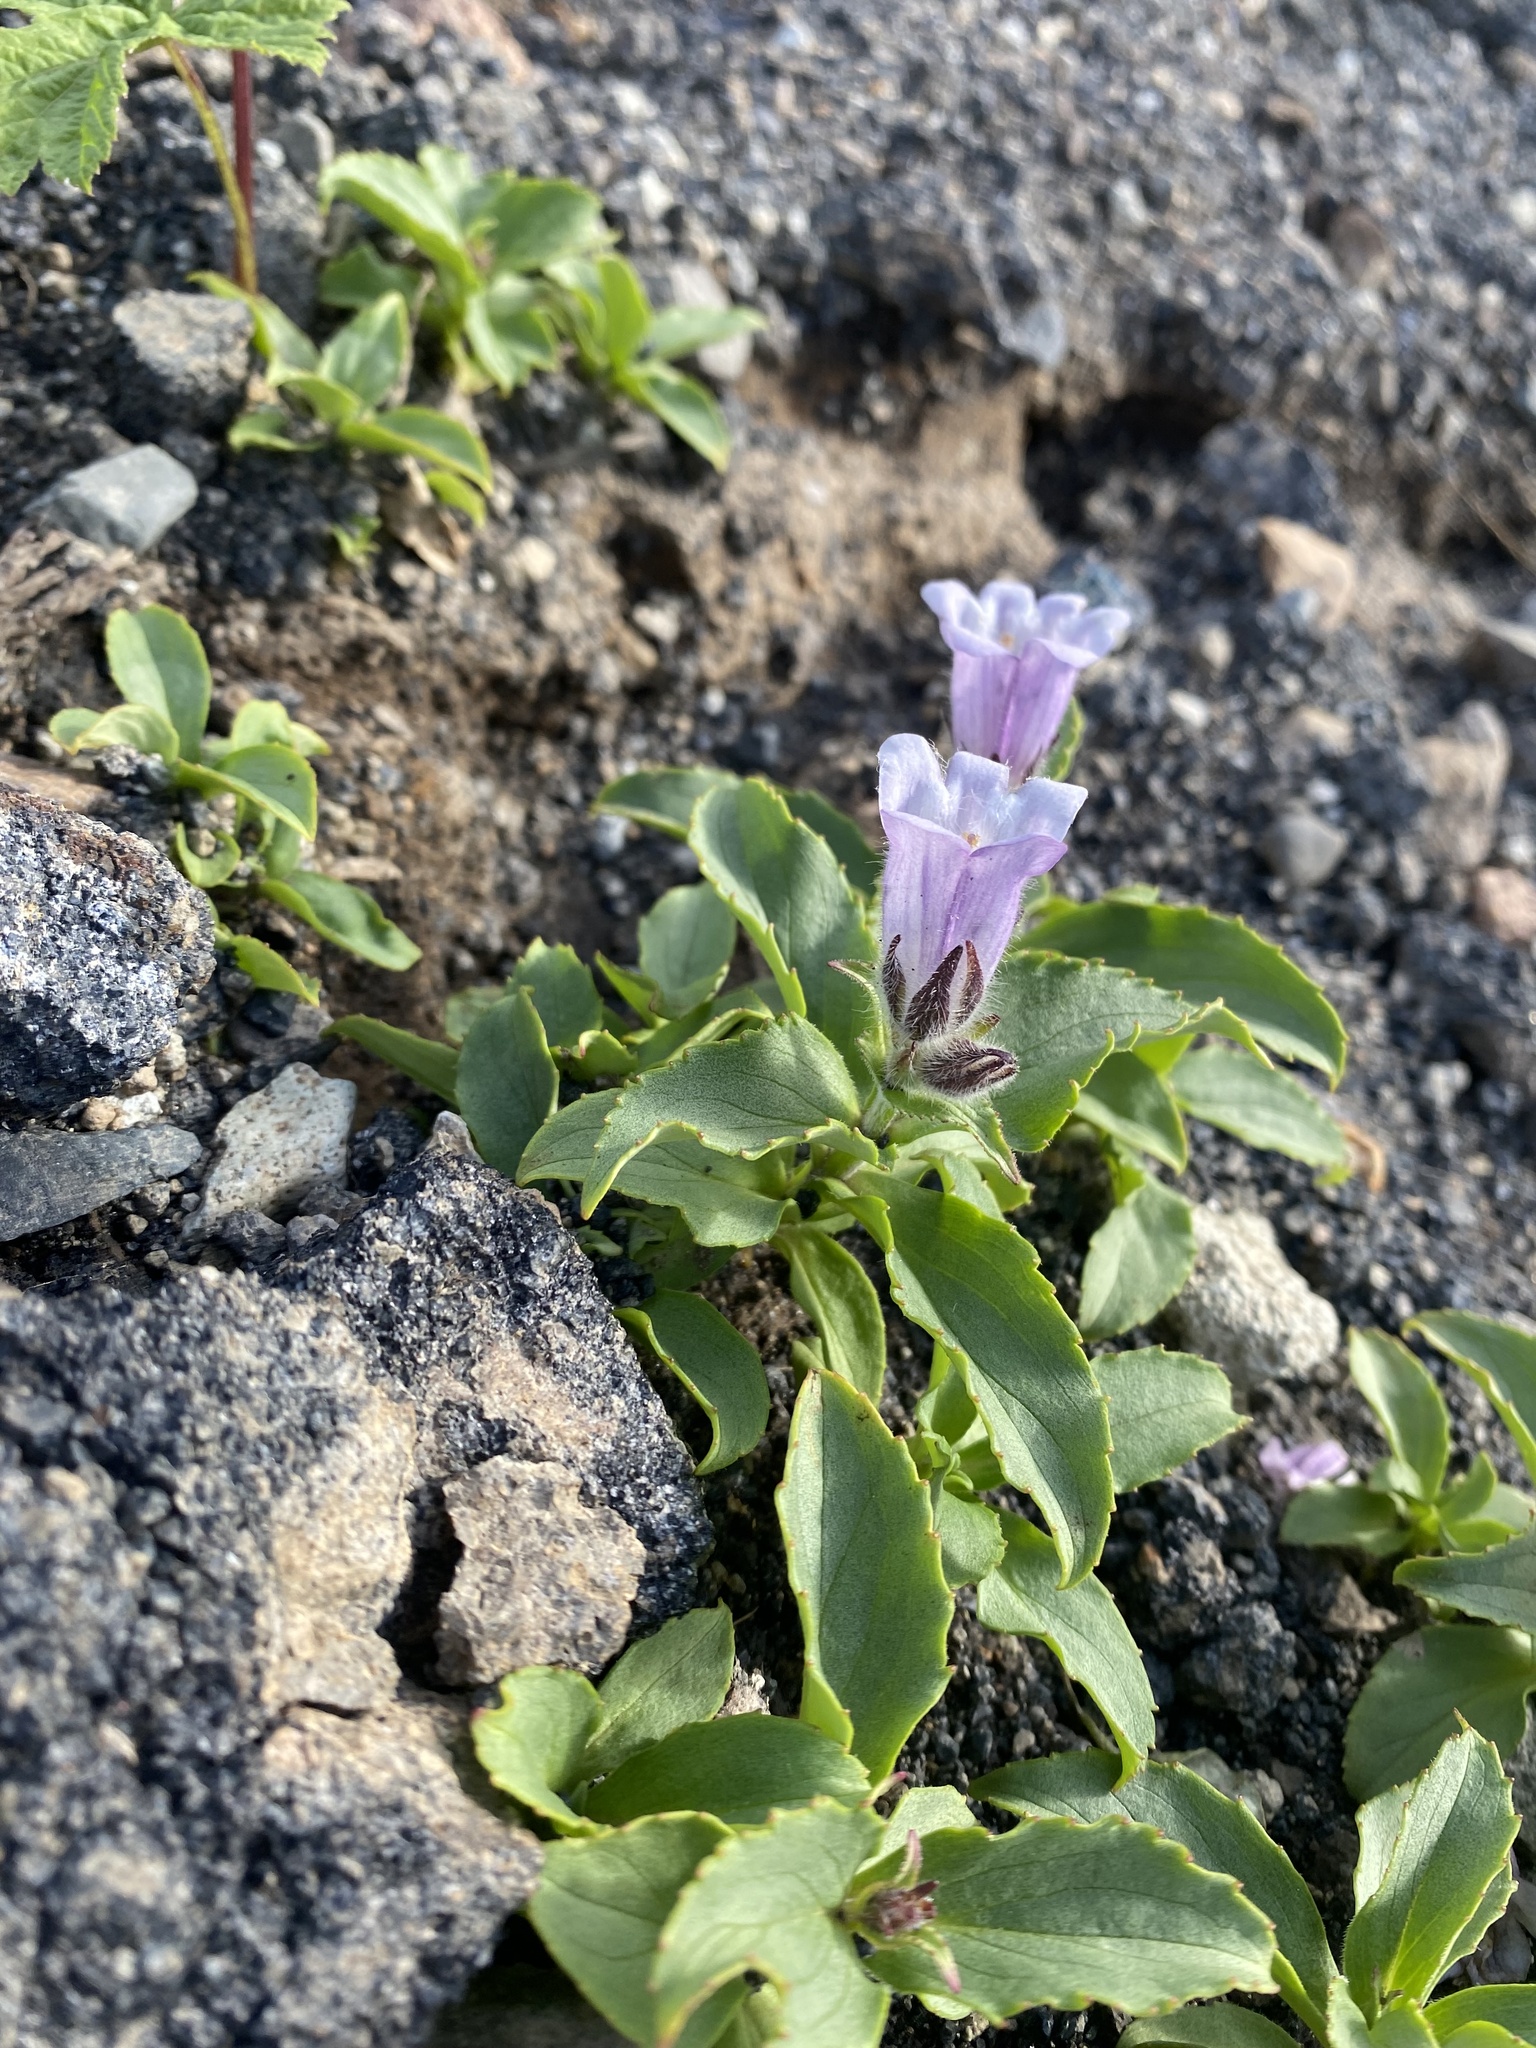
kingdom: Plantae
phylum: Tracheophyta
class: Magnoliopsida
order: Lamiales
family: Plantaginaceae
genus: Pennellianthus
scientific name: Pennellianthus frutescens
